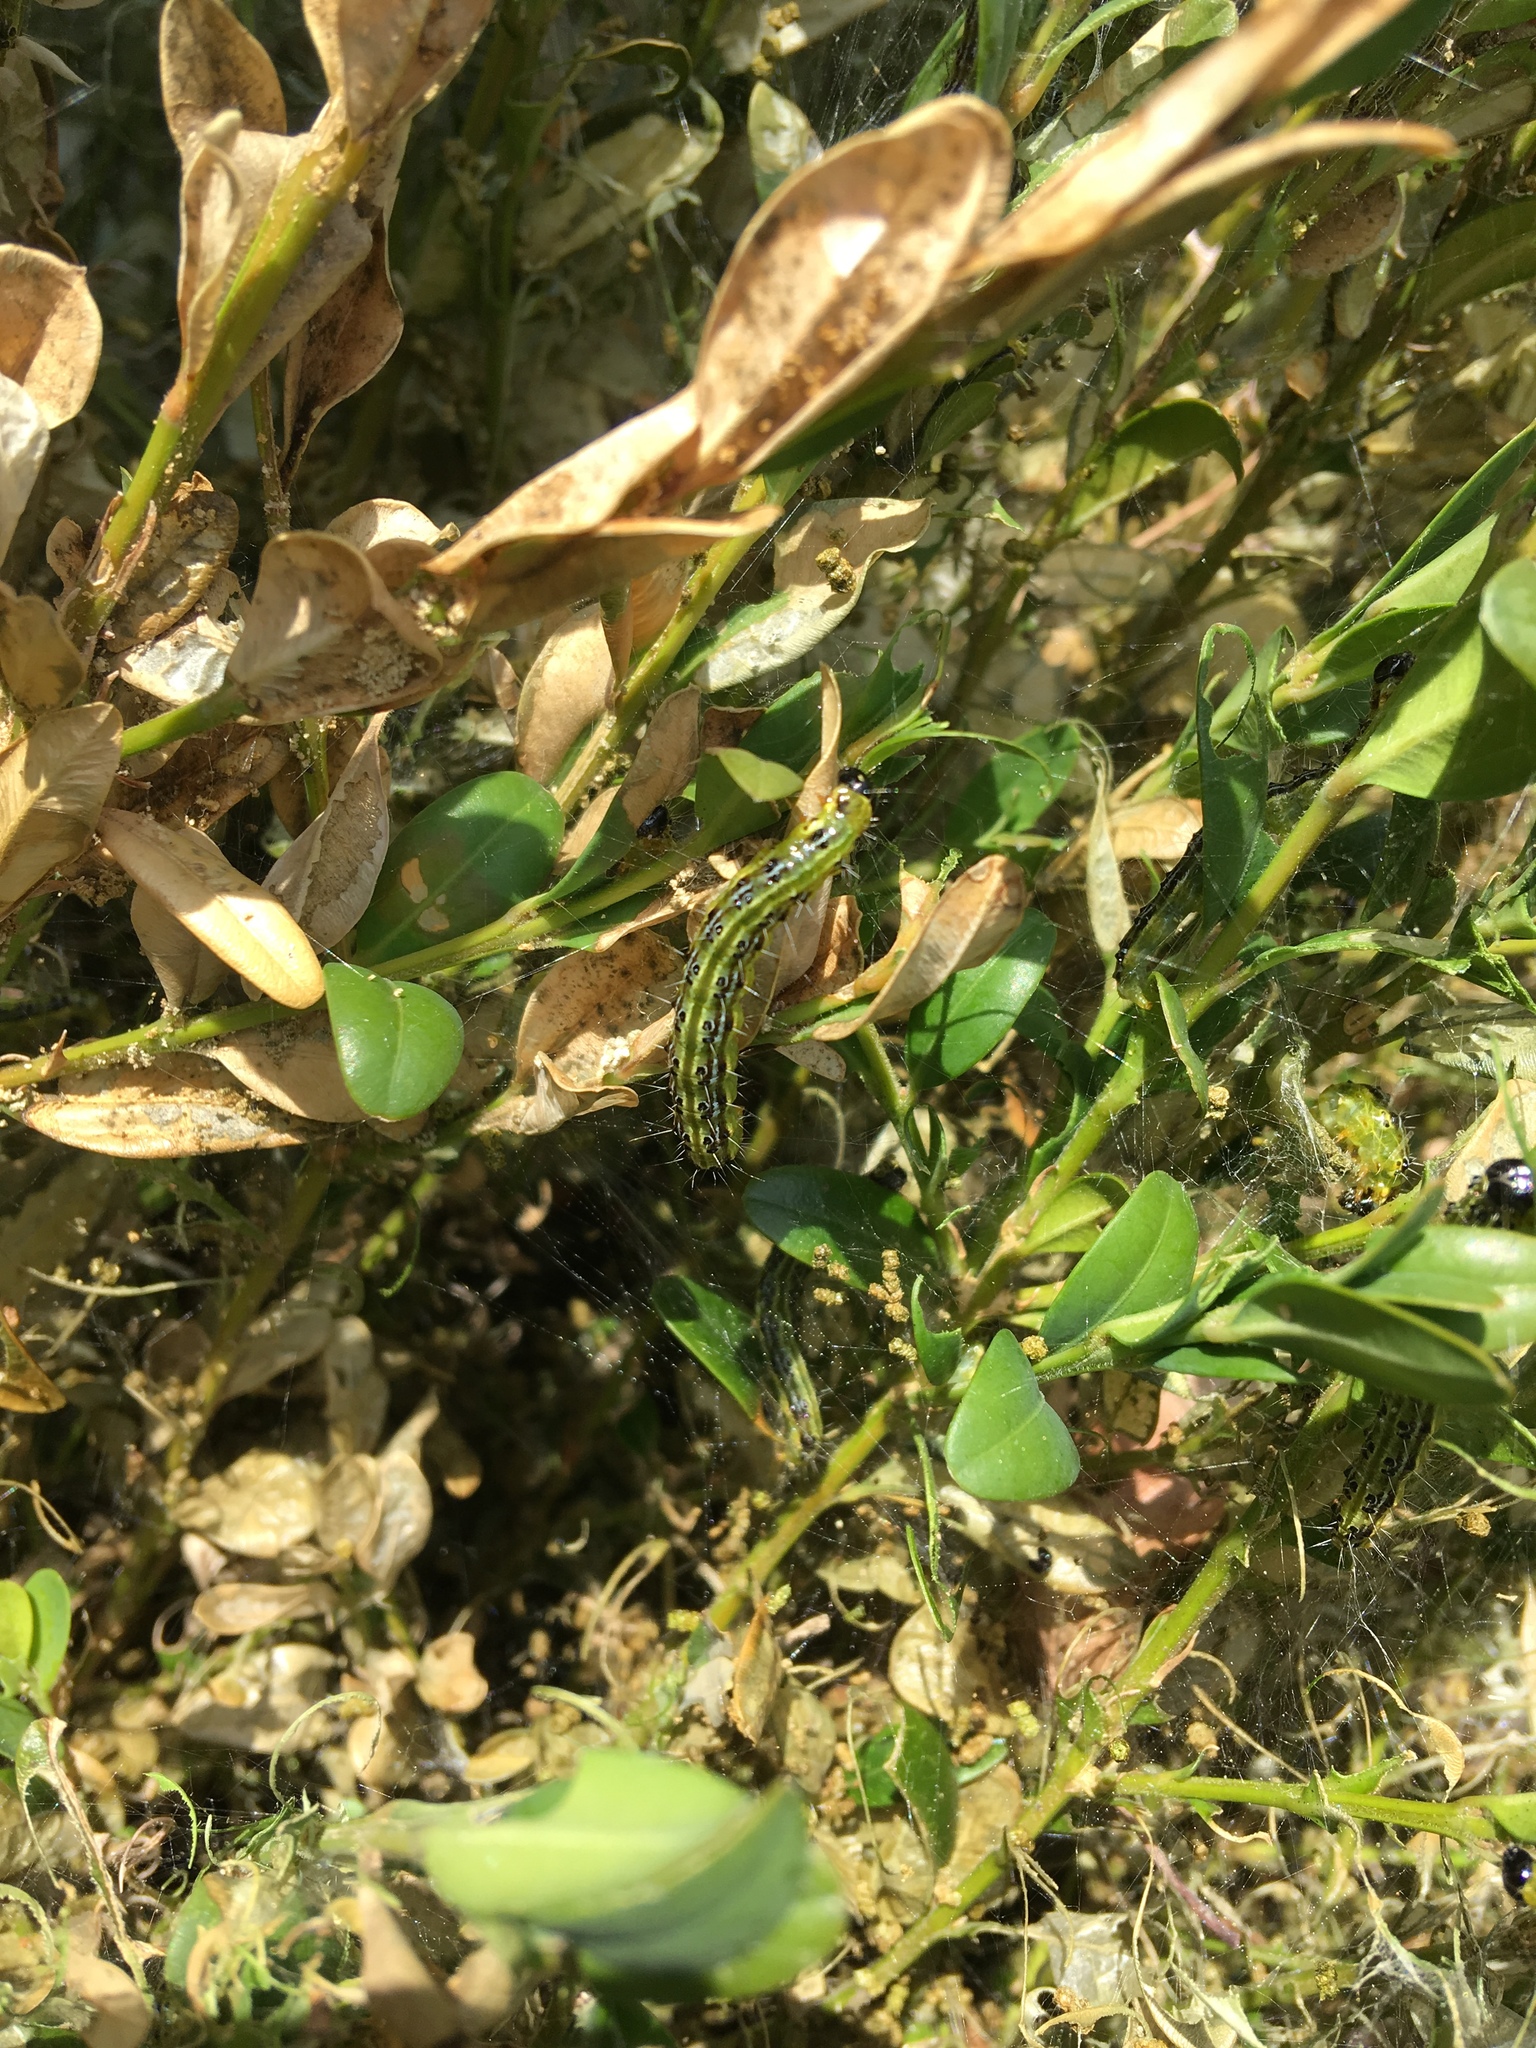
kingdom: Animalia
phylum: Arthropoda
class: Insecta
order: Lepidoptera
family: Crambidae
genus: Cydalima
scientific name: Cydalima perspectalis
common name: Box tree moth
